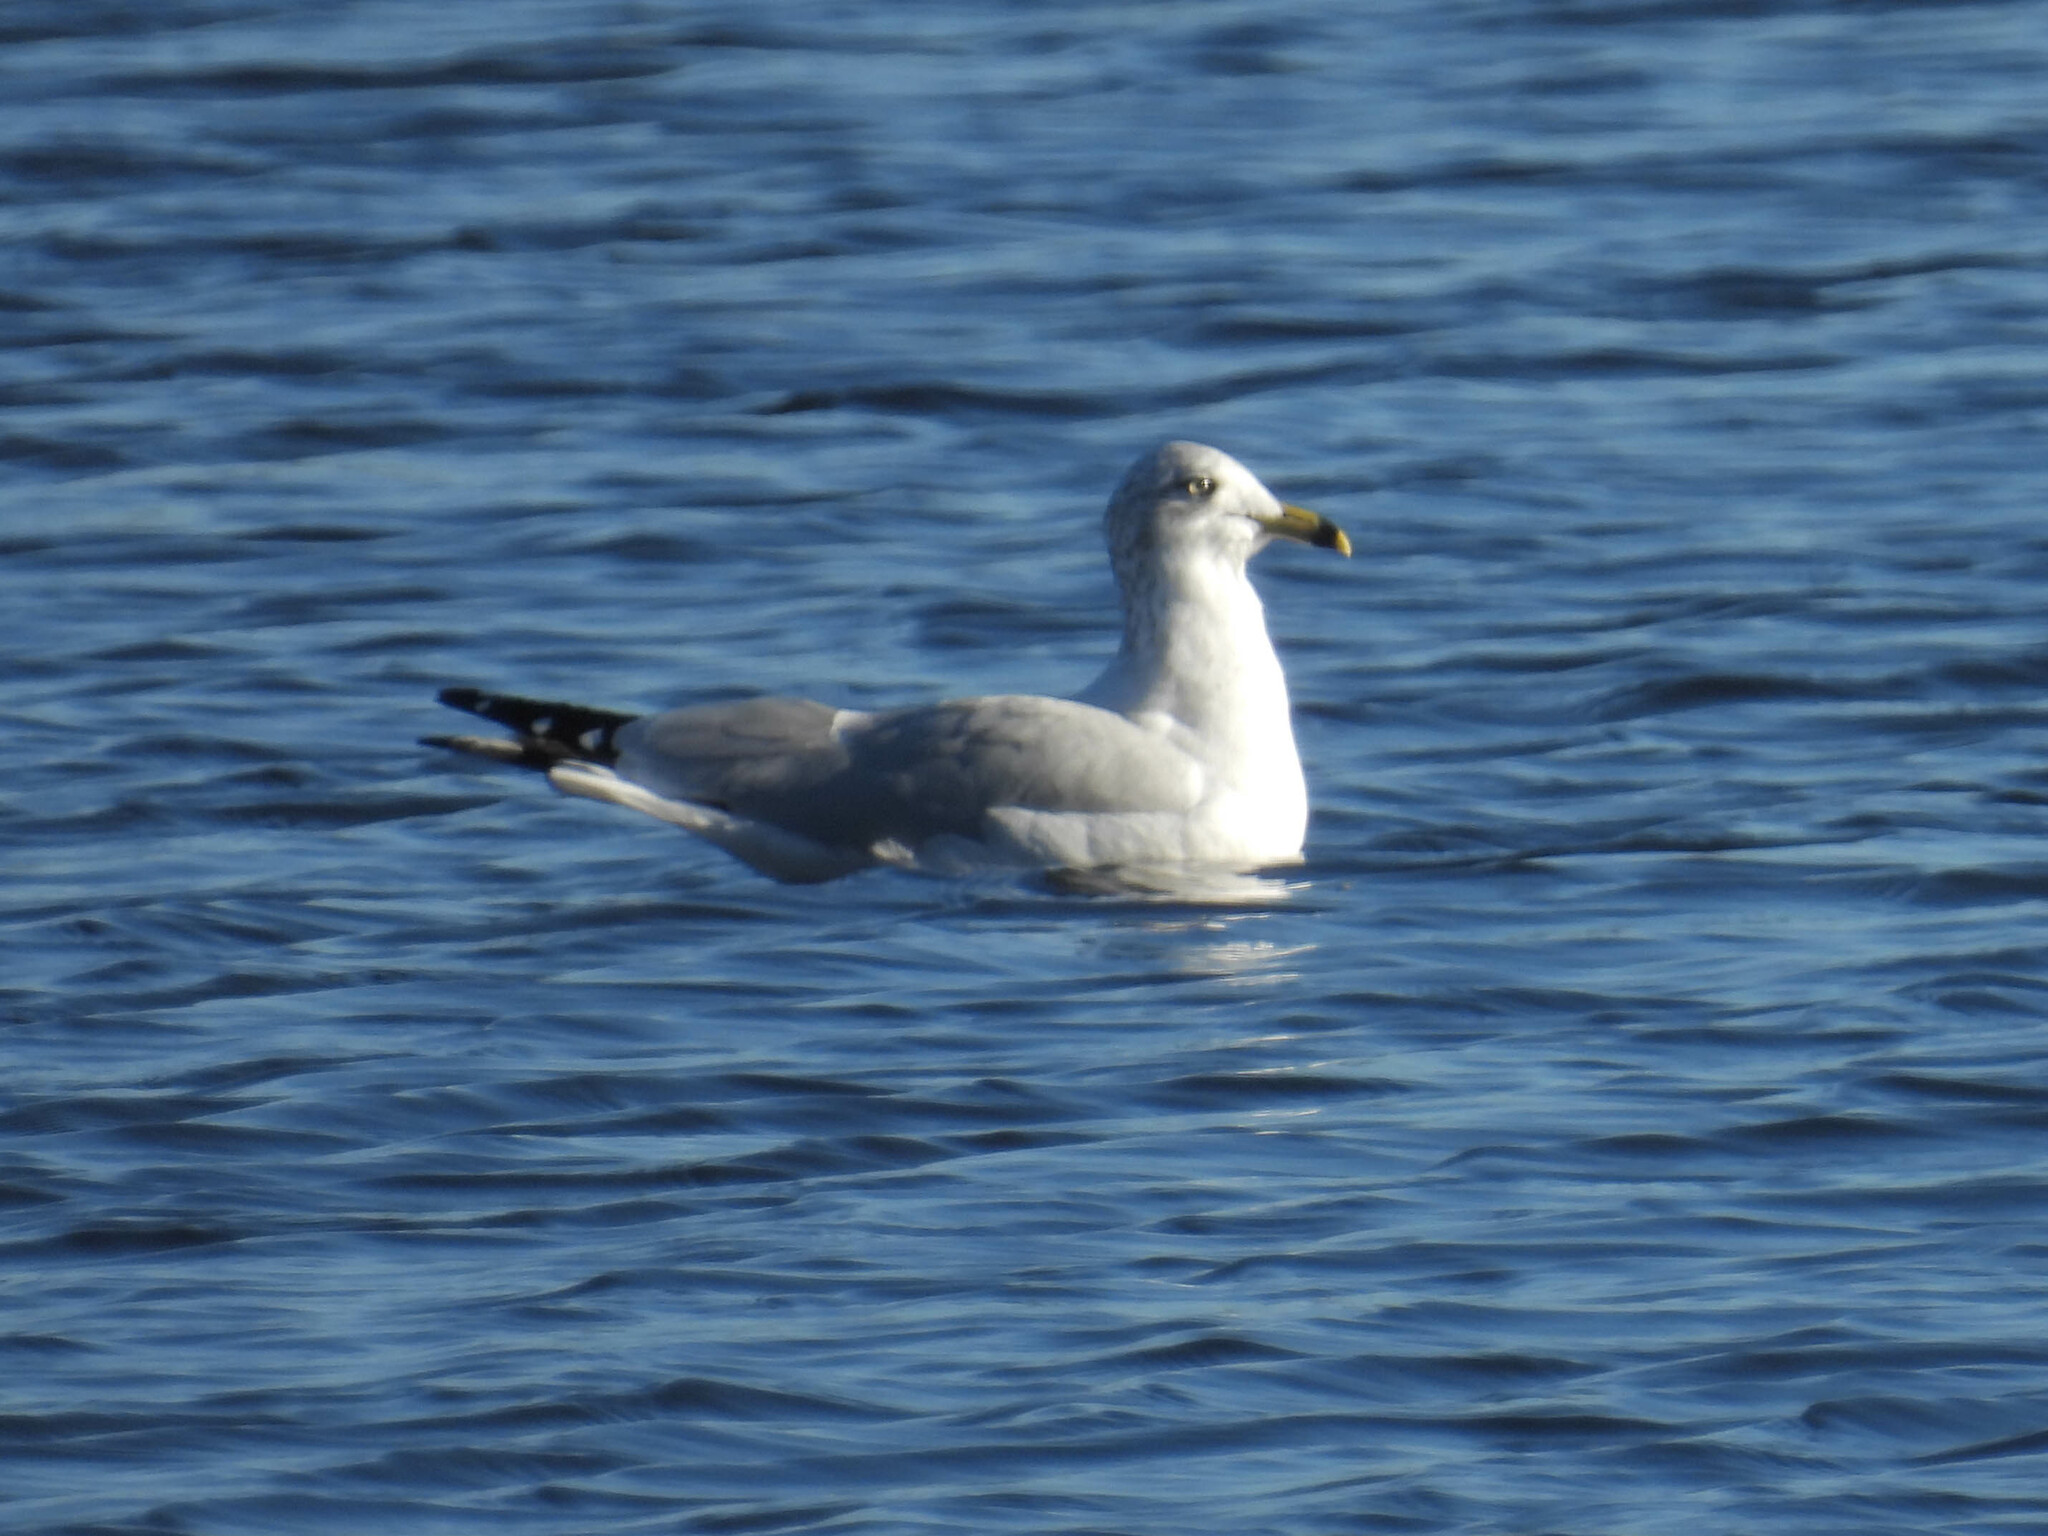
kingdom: Animalia
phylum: Chordata
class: Aves
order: Charadriiformes
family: Laridae
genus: Larus
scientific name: Larus delawarensis
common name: Ring-billed gull
